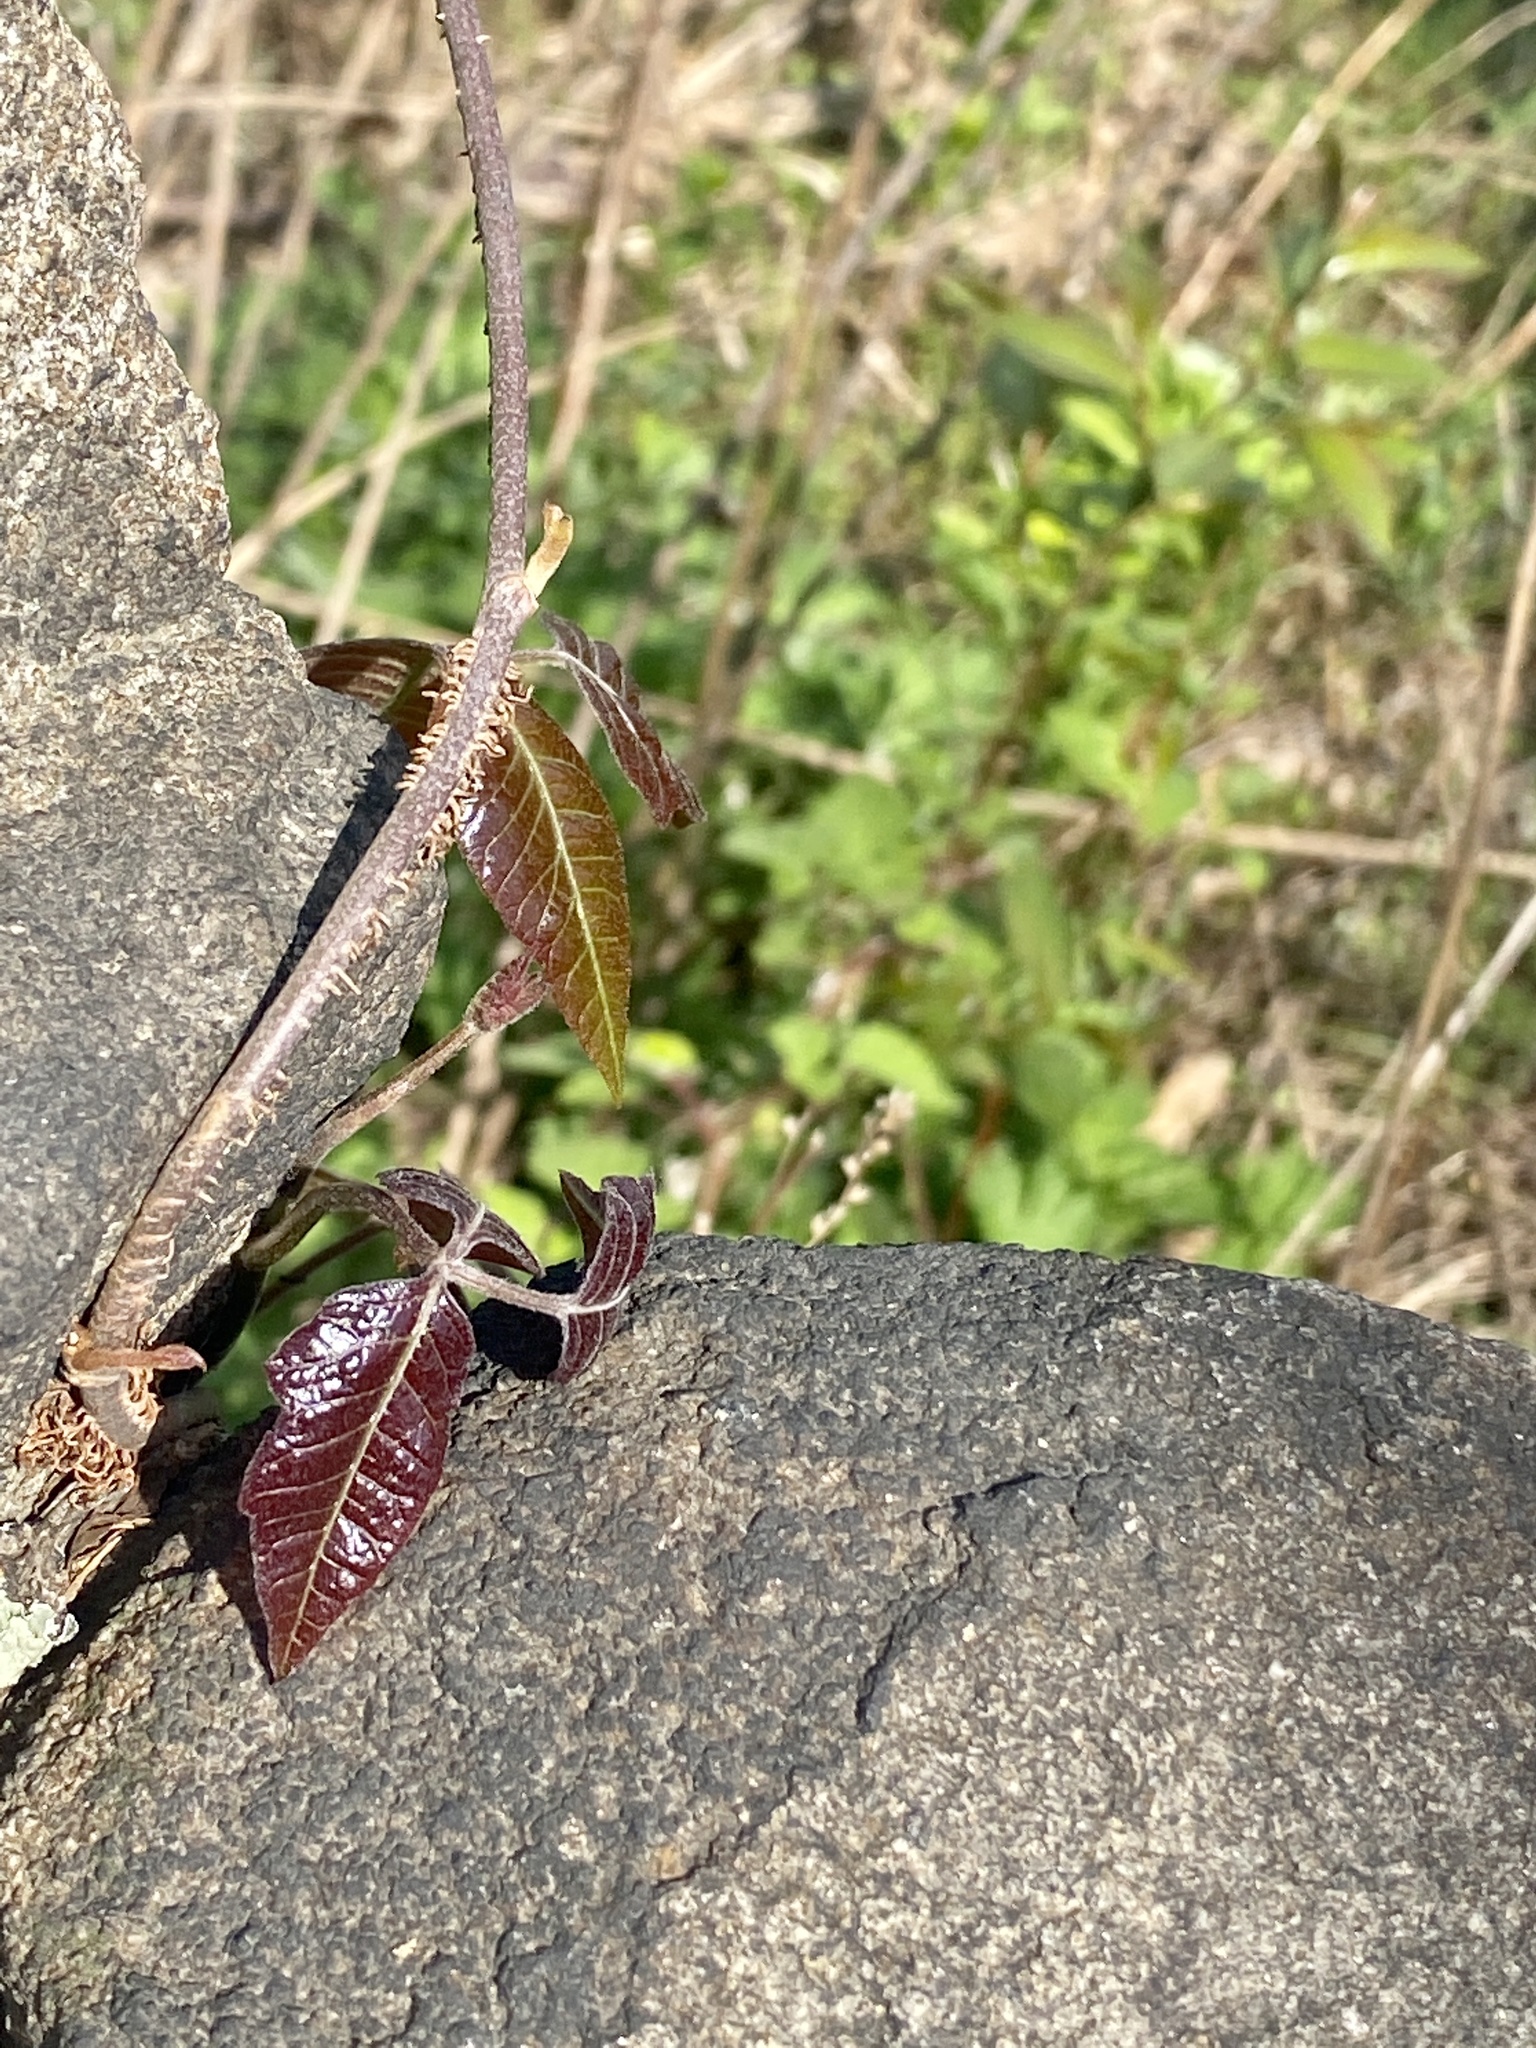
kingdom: Plantae
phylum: Tracheophyta
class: Magnoliopsida
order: Sapindales
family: Anacardiaceae
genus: Toxicodendron
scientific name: Toxicodendron radicans
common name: Poison ivy
